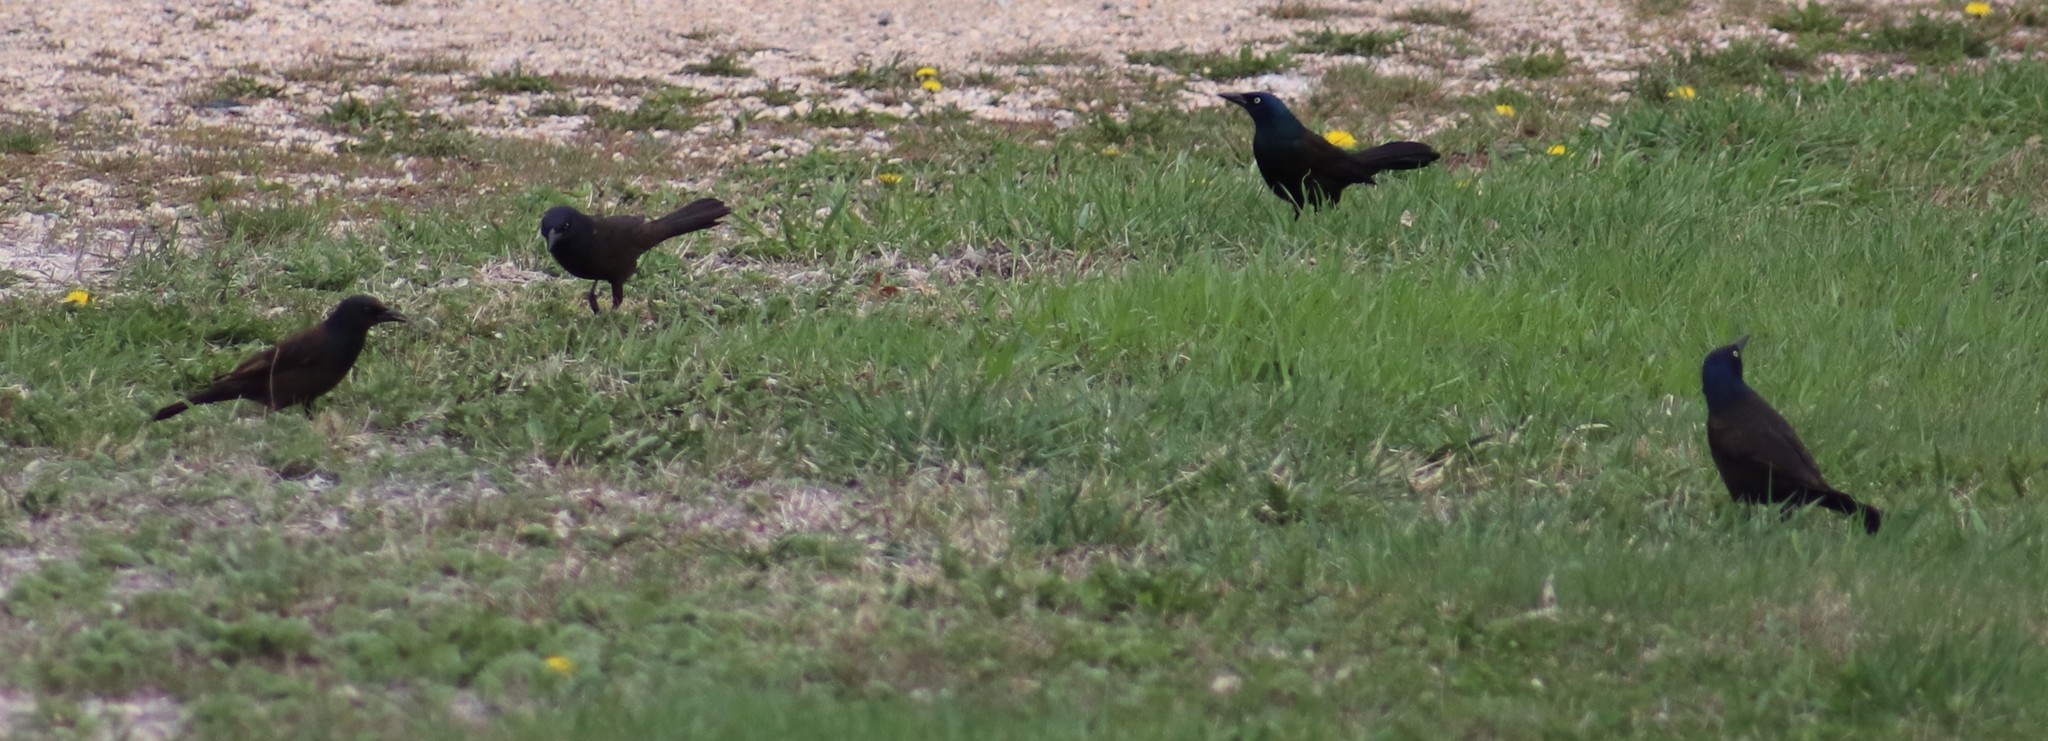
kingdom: Animalia
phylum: Chordata
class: Aves
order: Passeriformes
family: Icteridae
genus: Quiscalus
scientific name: Quiscalus quiscula
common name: Common grackle
